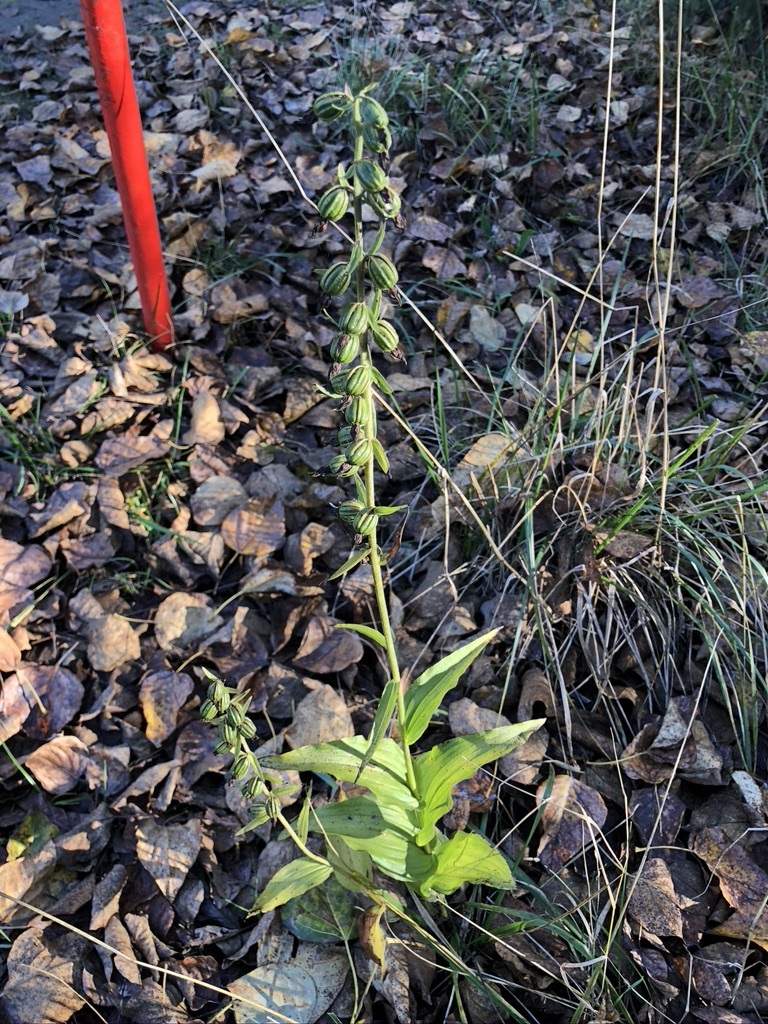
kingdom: Plantae
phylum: Tracheophyta
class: Liliopsida
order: Asparagales
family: Orchidaceae
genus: Epipactis
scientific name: Epipactis helleborine
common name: Broad-leaved helleborine
